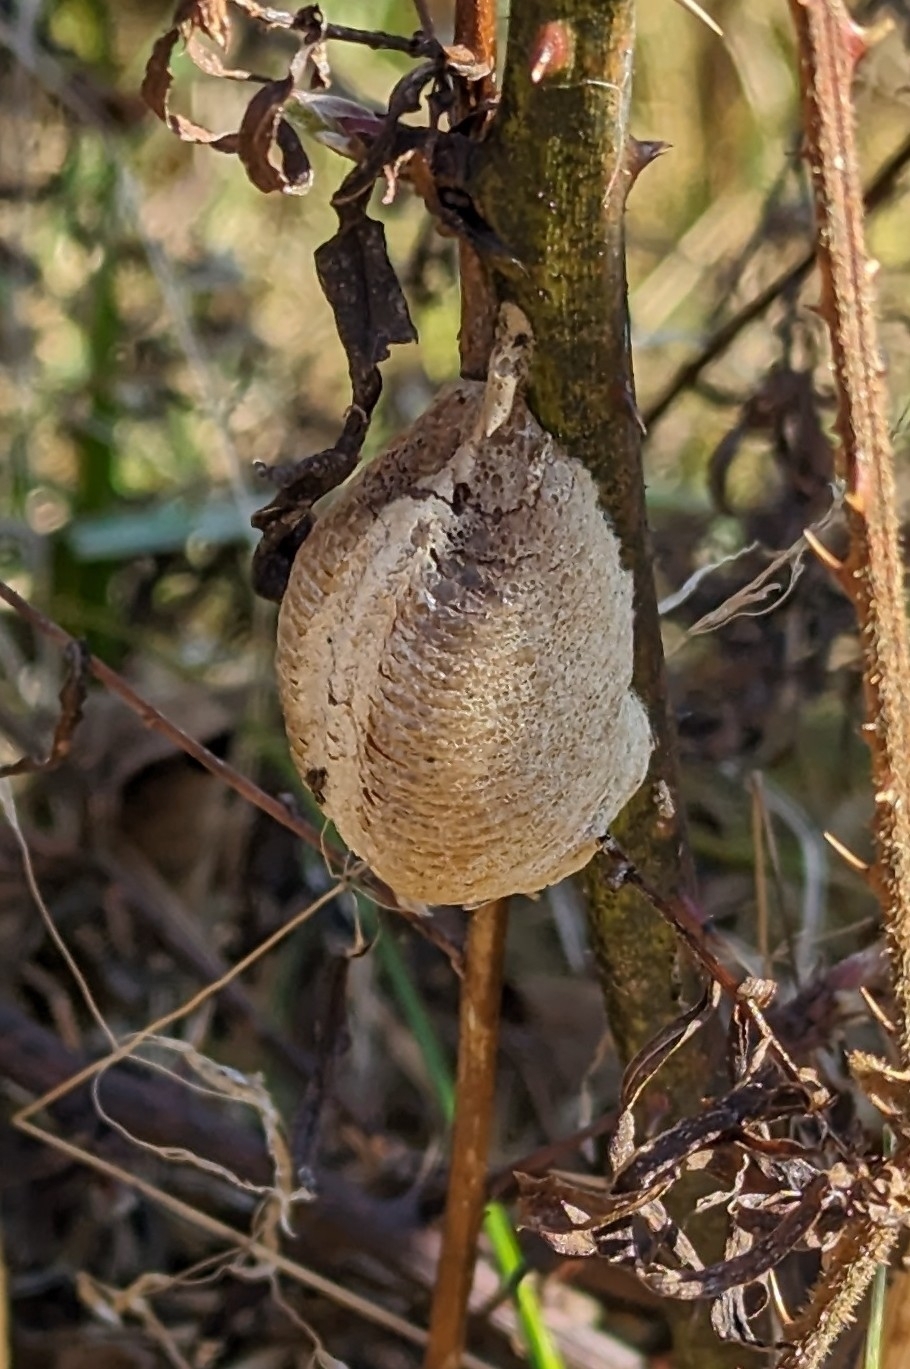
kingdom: Animalia
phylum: Arthropoda
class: Insecta
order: Mantodea
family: Mantidae
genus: Mantis
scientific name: Mantis religiosa
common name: Praying mantis
